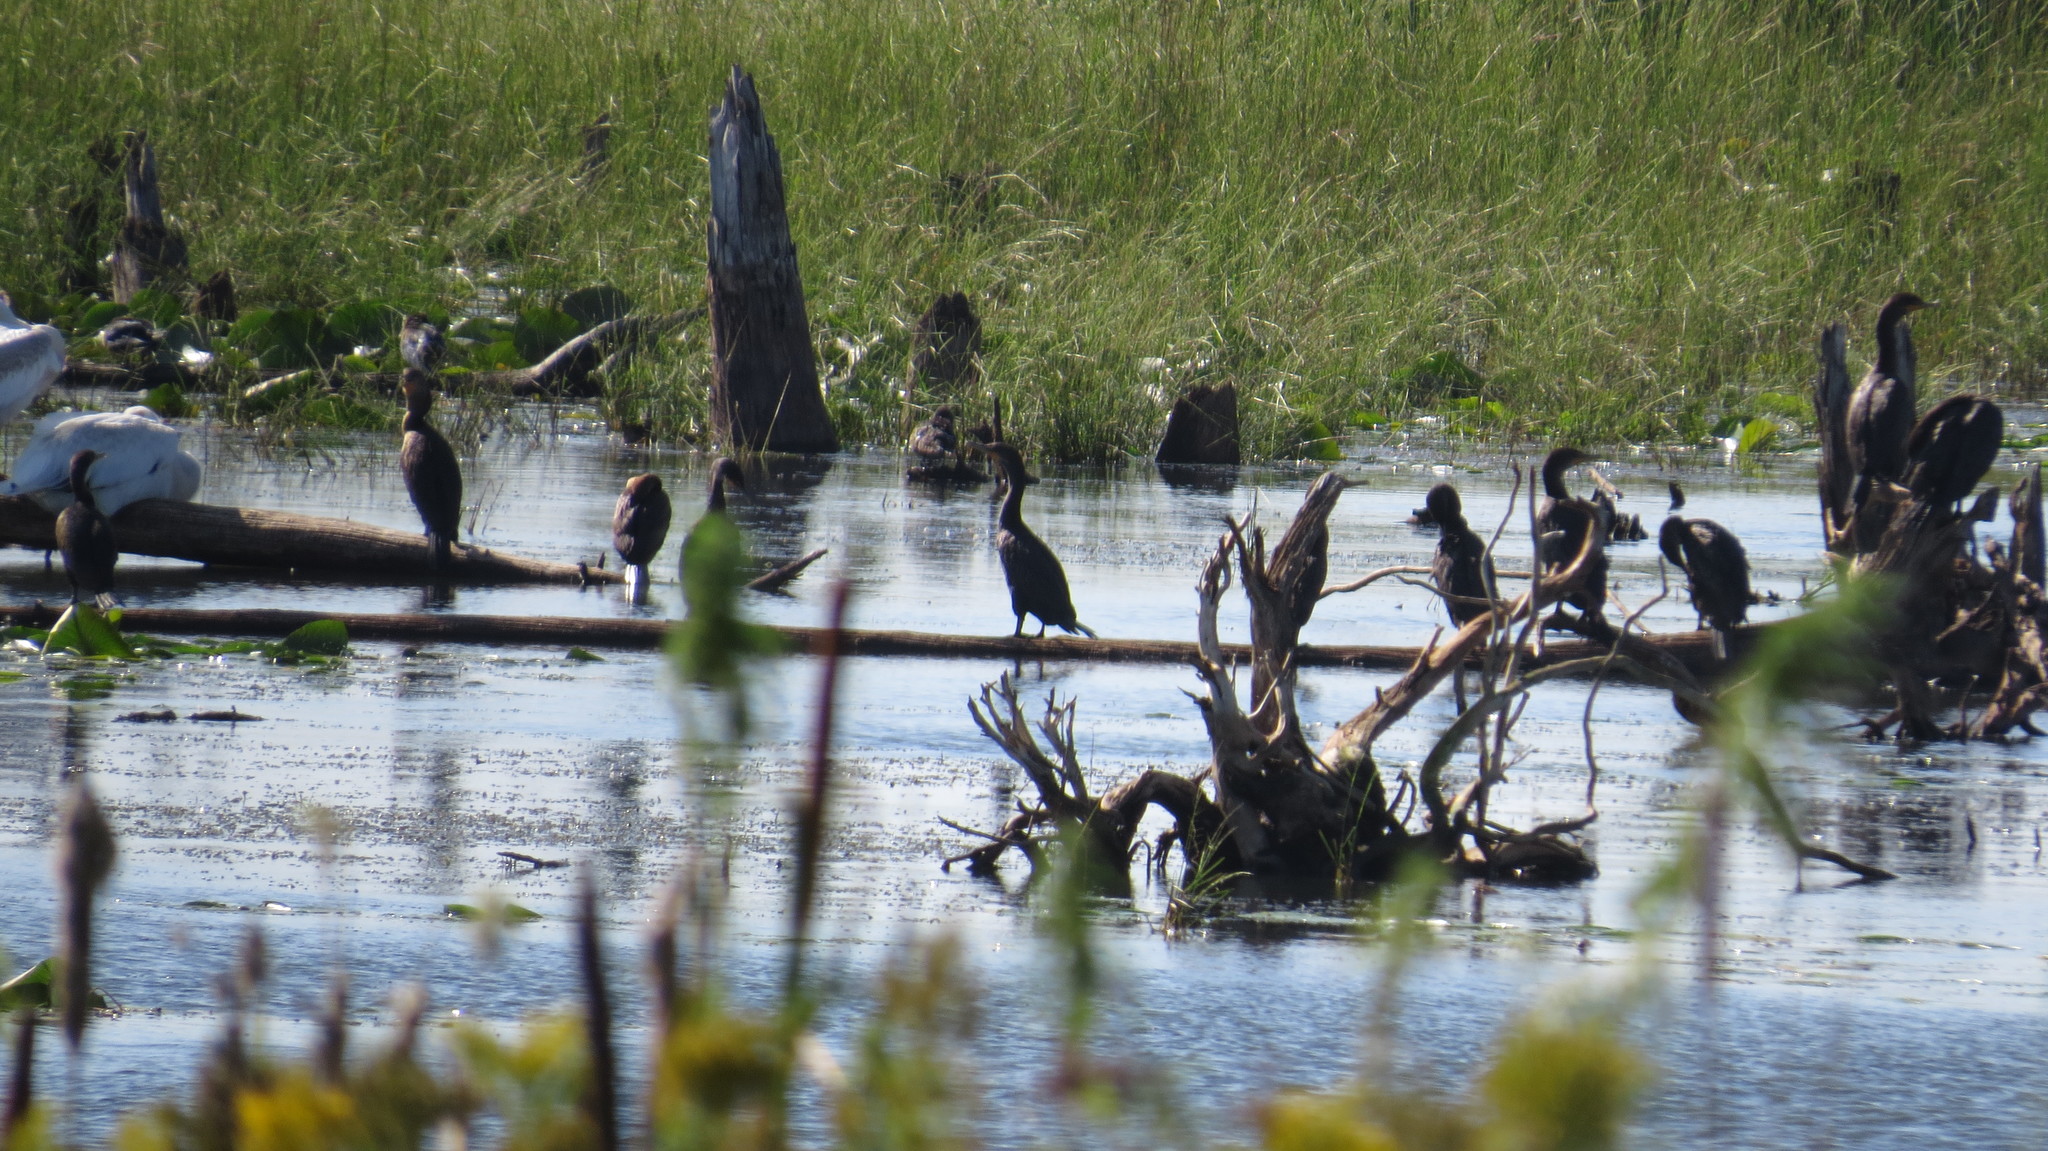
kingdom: Animalia
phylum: Chordata
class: Aves
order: Suliformes
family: Phalacrocoracidae
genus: Phalacrocorax
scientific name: Phalacrocorax auritus
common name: Double-crested cormorant
